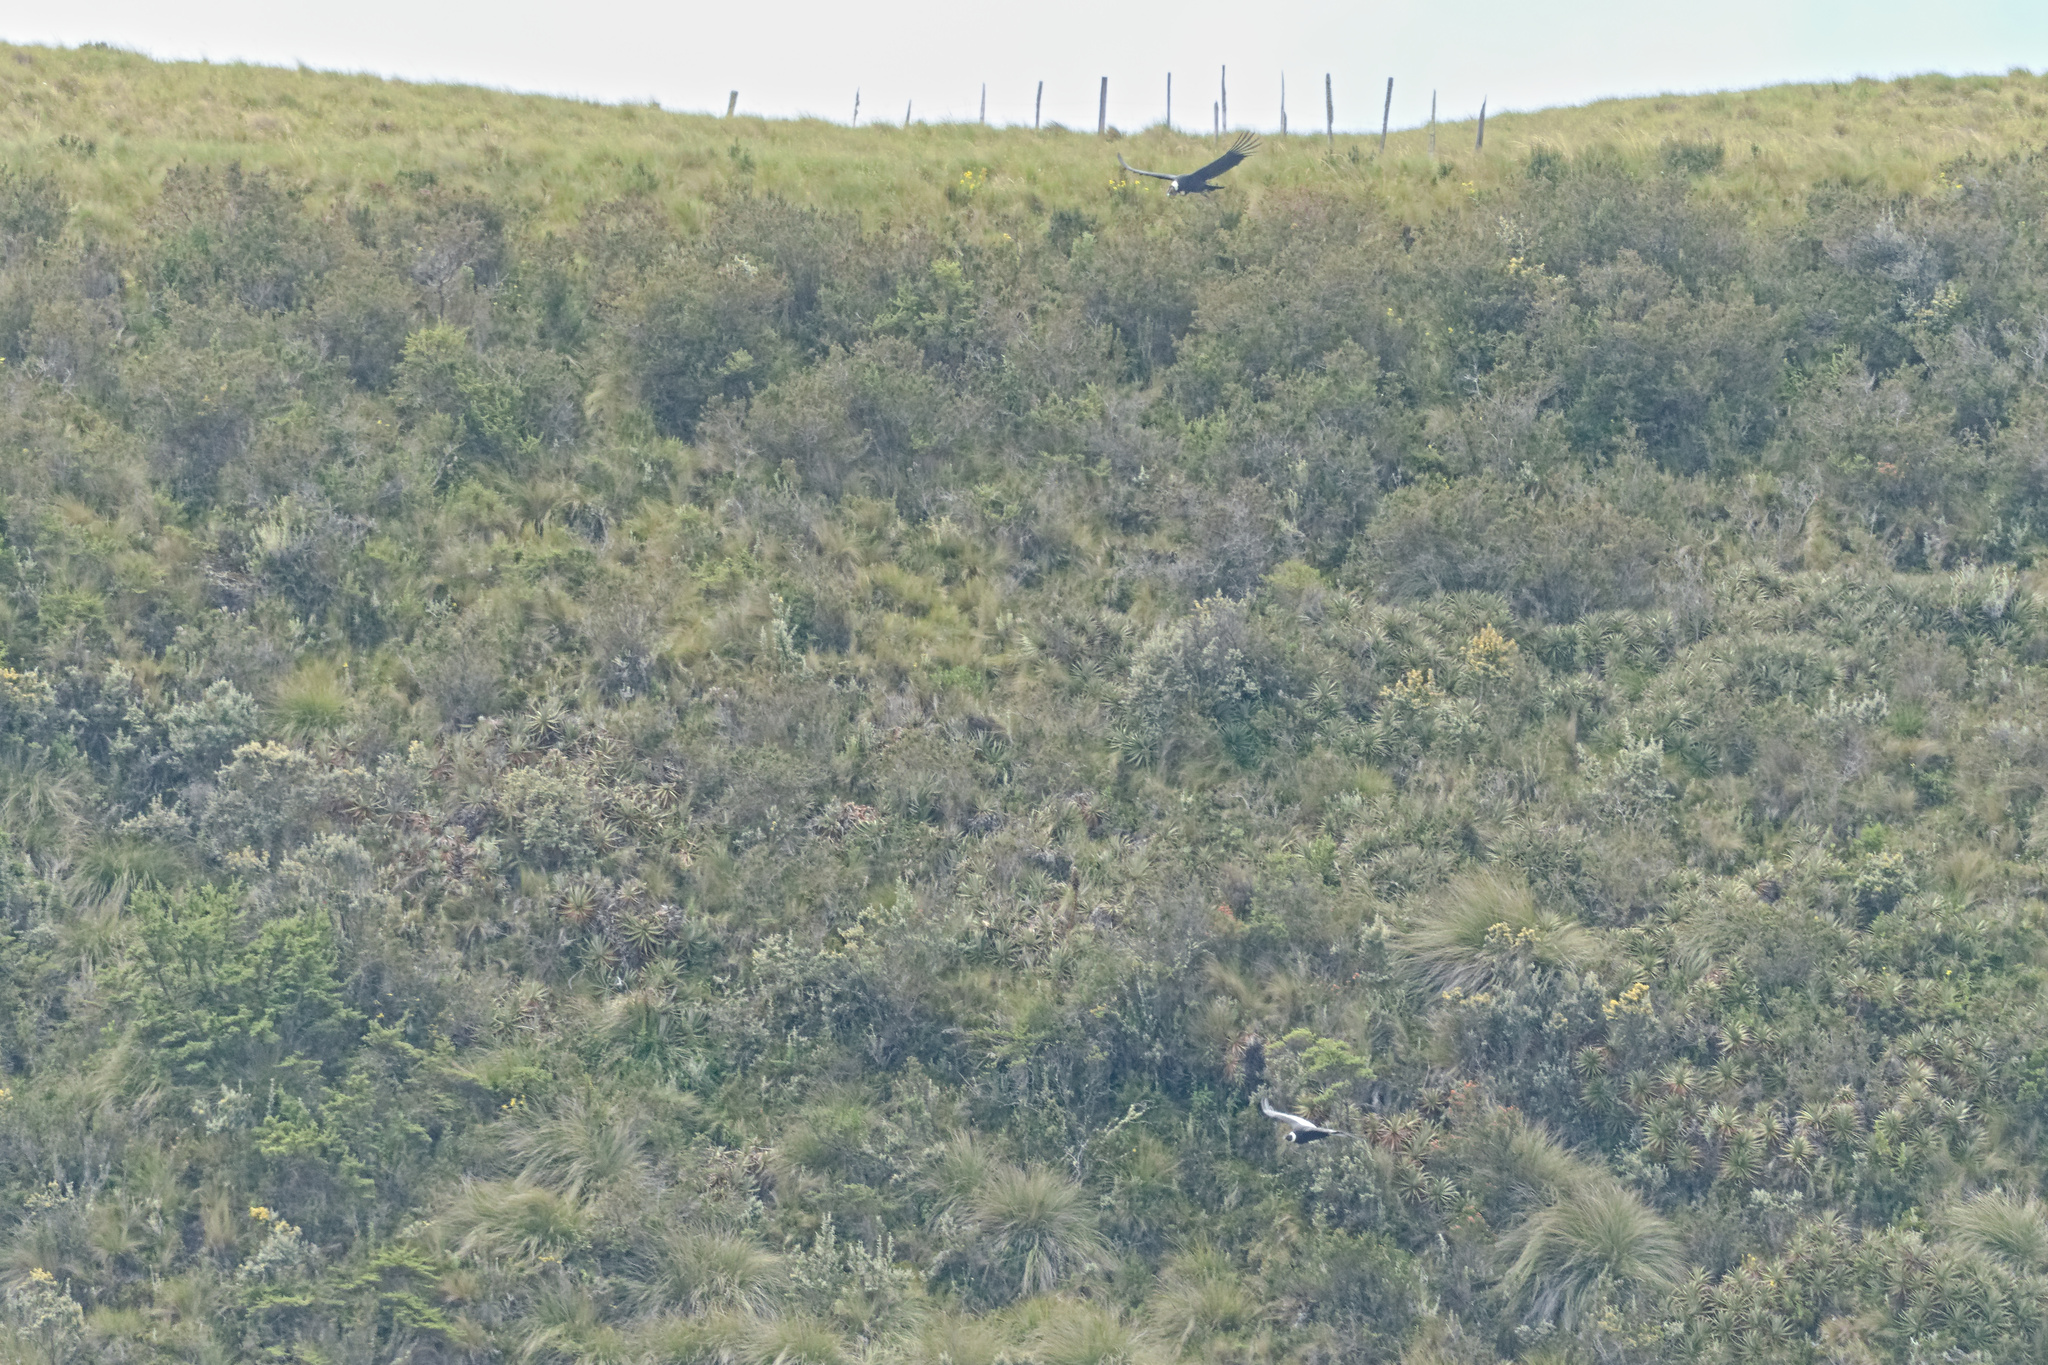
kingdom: Animalia
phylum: Chordata
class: Aves
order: Accipitriformes
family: Cathartidae
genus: Vultur
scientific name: Vultur gryphus
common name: Andean condor
